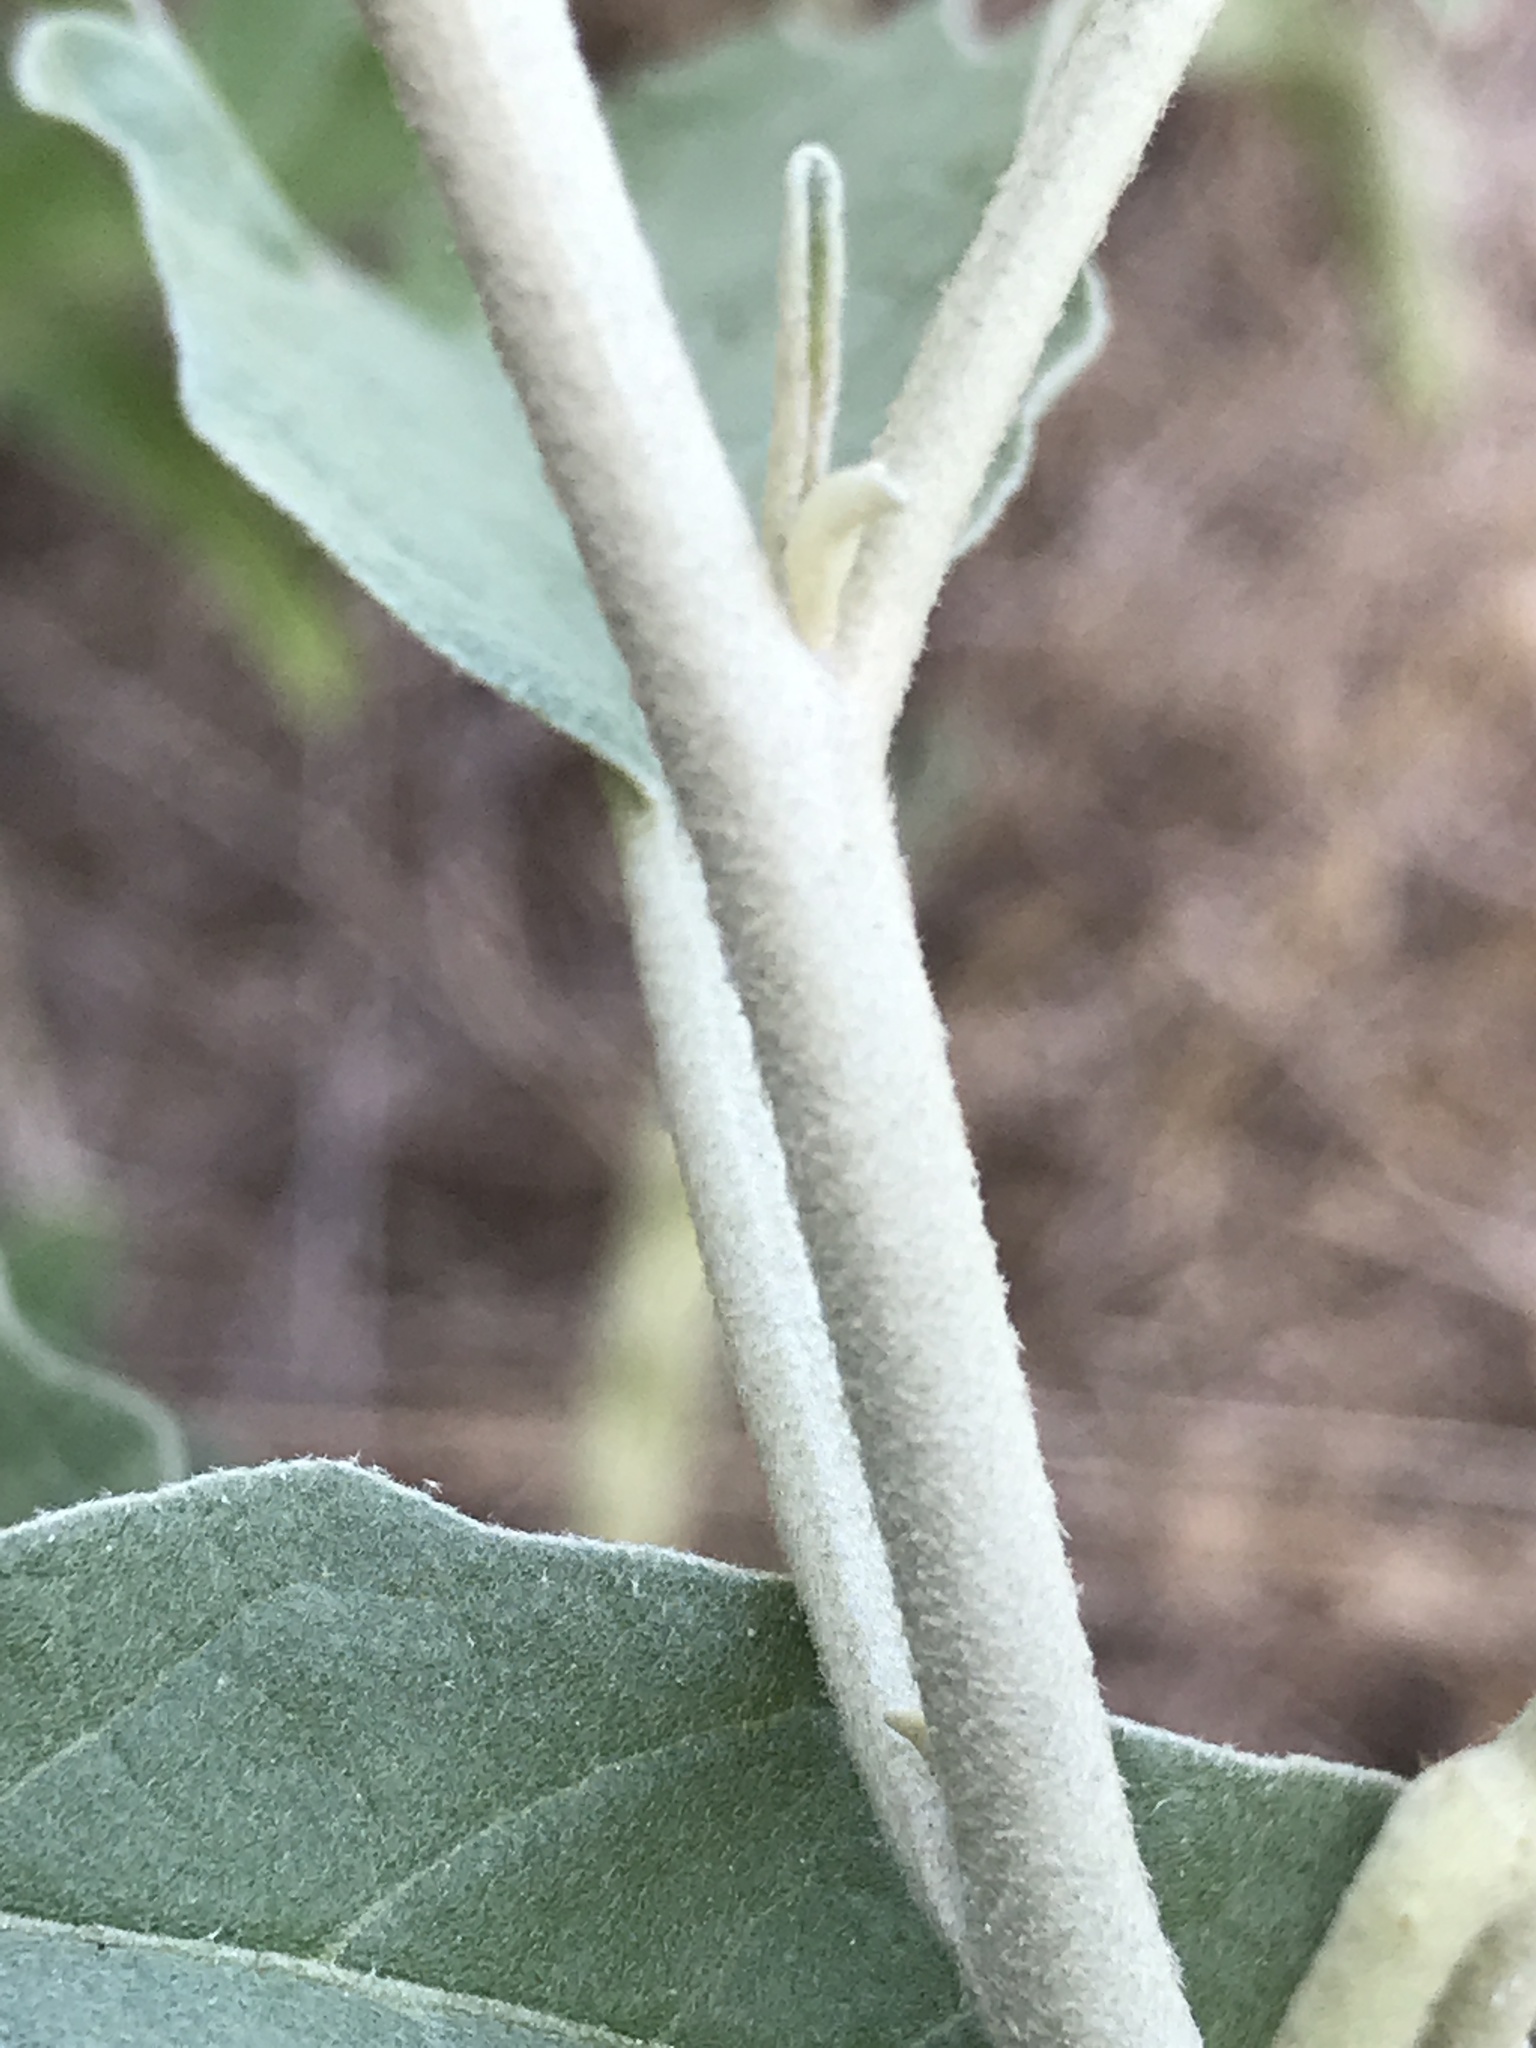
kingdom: Plantae
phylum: Tracheophyta
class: Magnoliopsida
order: Solanales
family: Solanaceae
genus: Solanum
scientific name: Solanum elaeagnifolium
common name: Silverleaf nightshade
